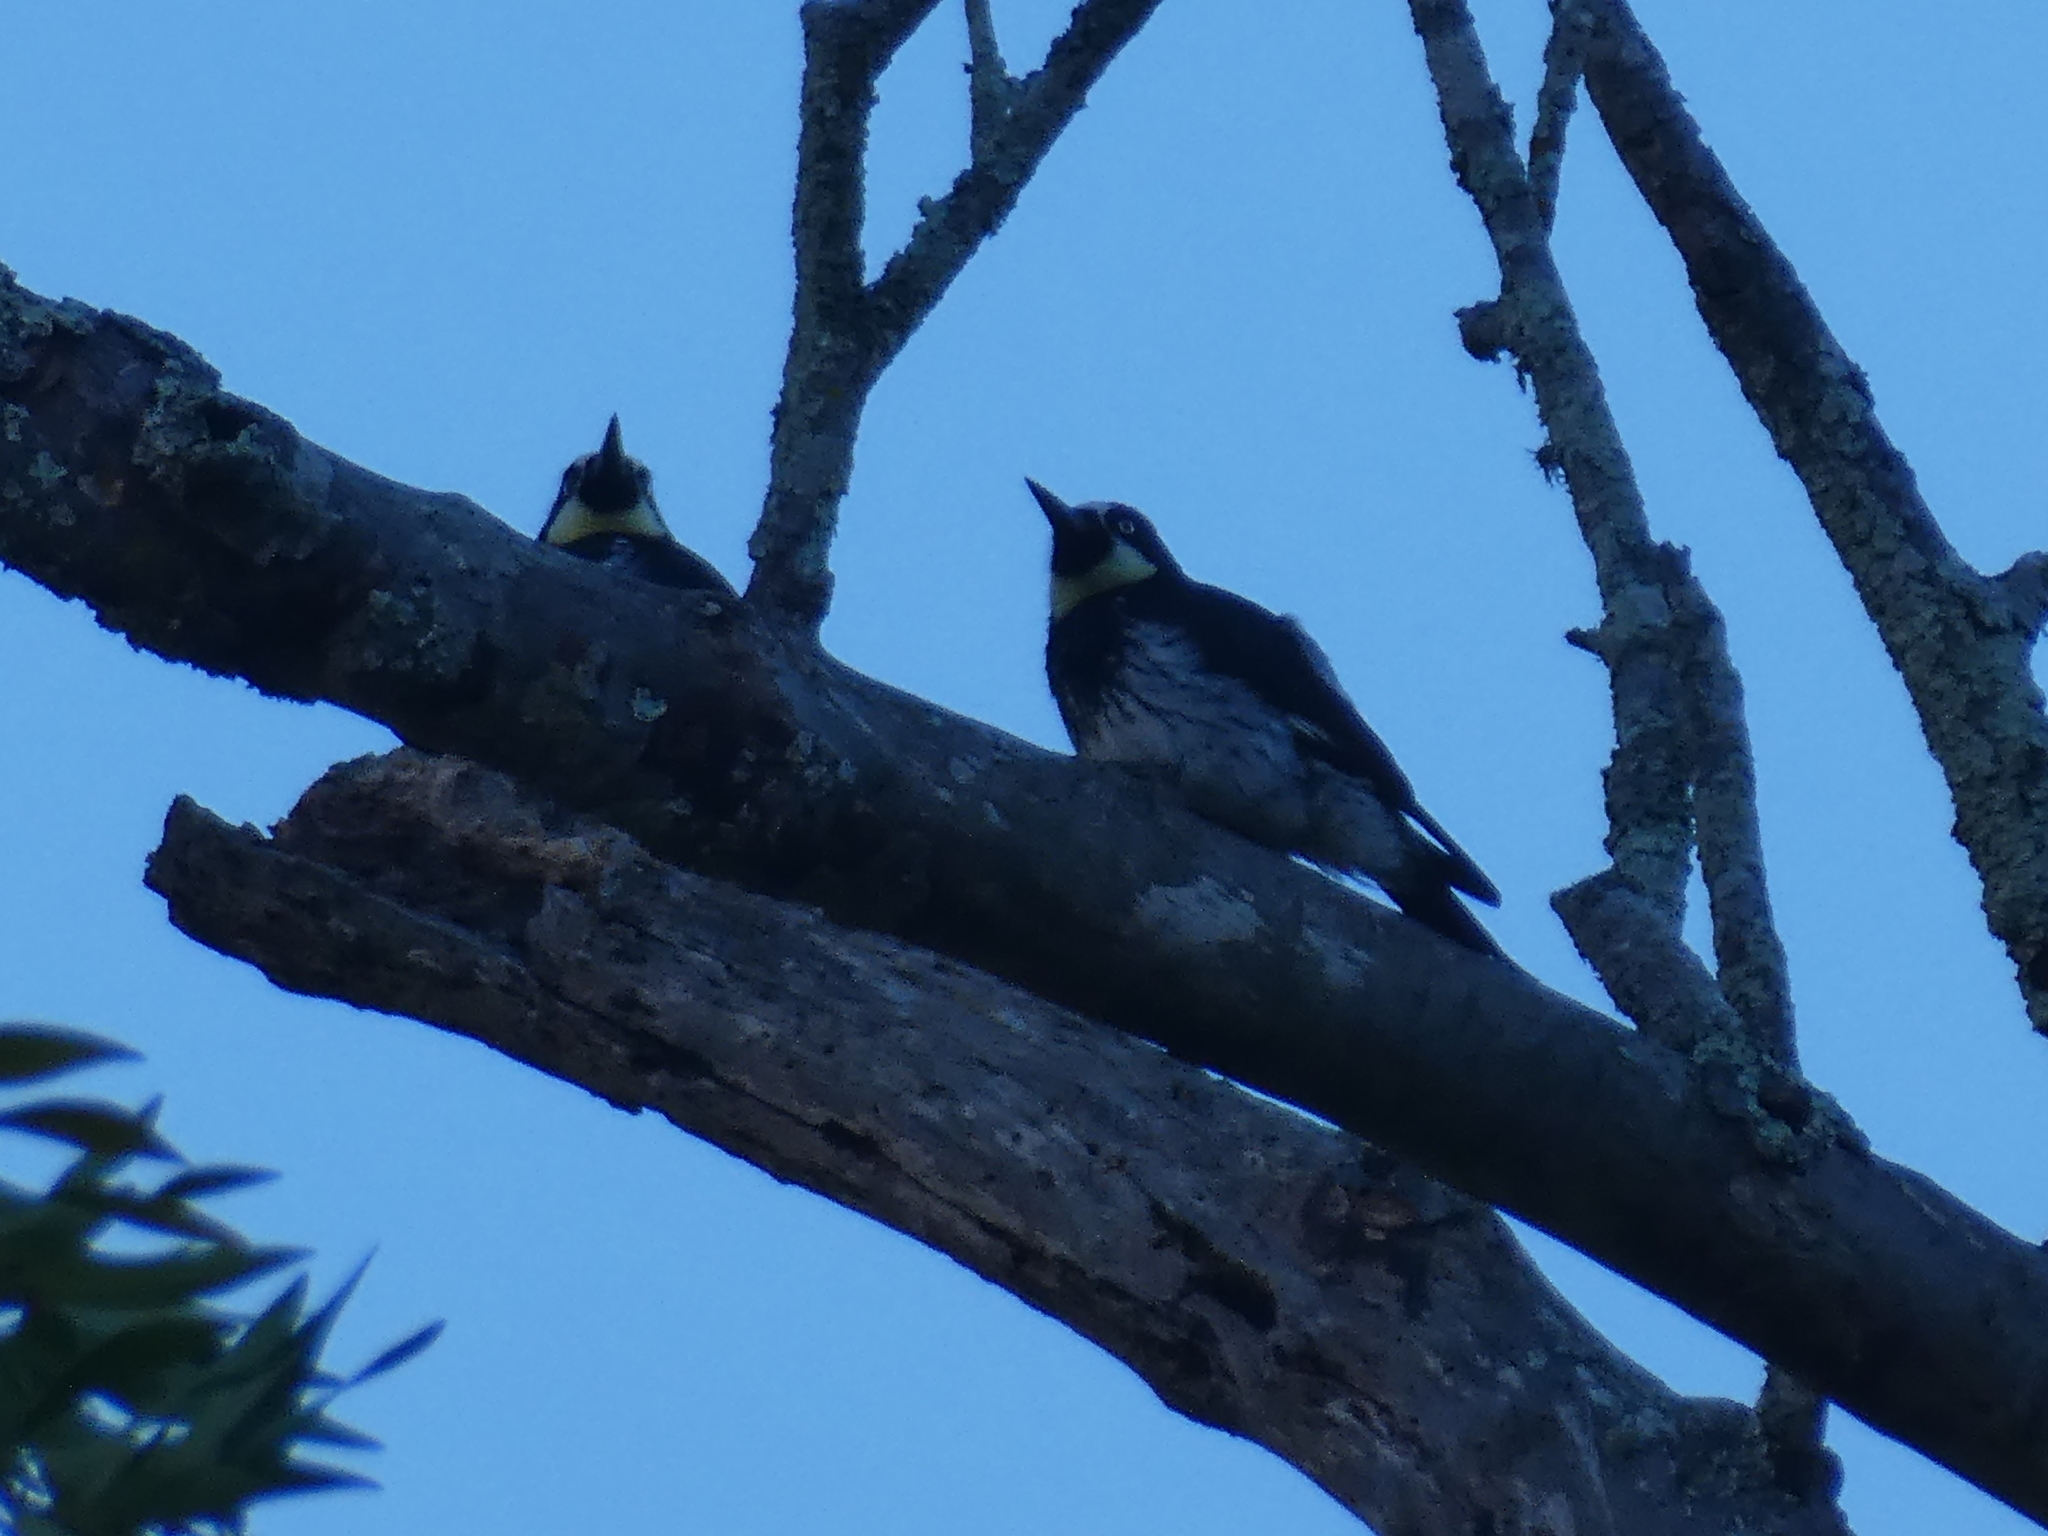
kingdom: Animalia
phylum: Chordata
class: Aves
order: Piciformes
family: Picidae
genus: Melanerpes
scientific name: Melanerpes formicivorus
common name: Acorn woodpecker
